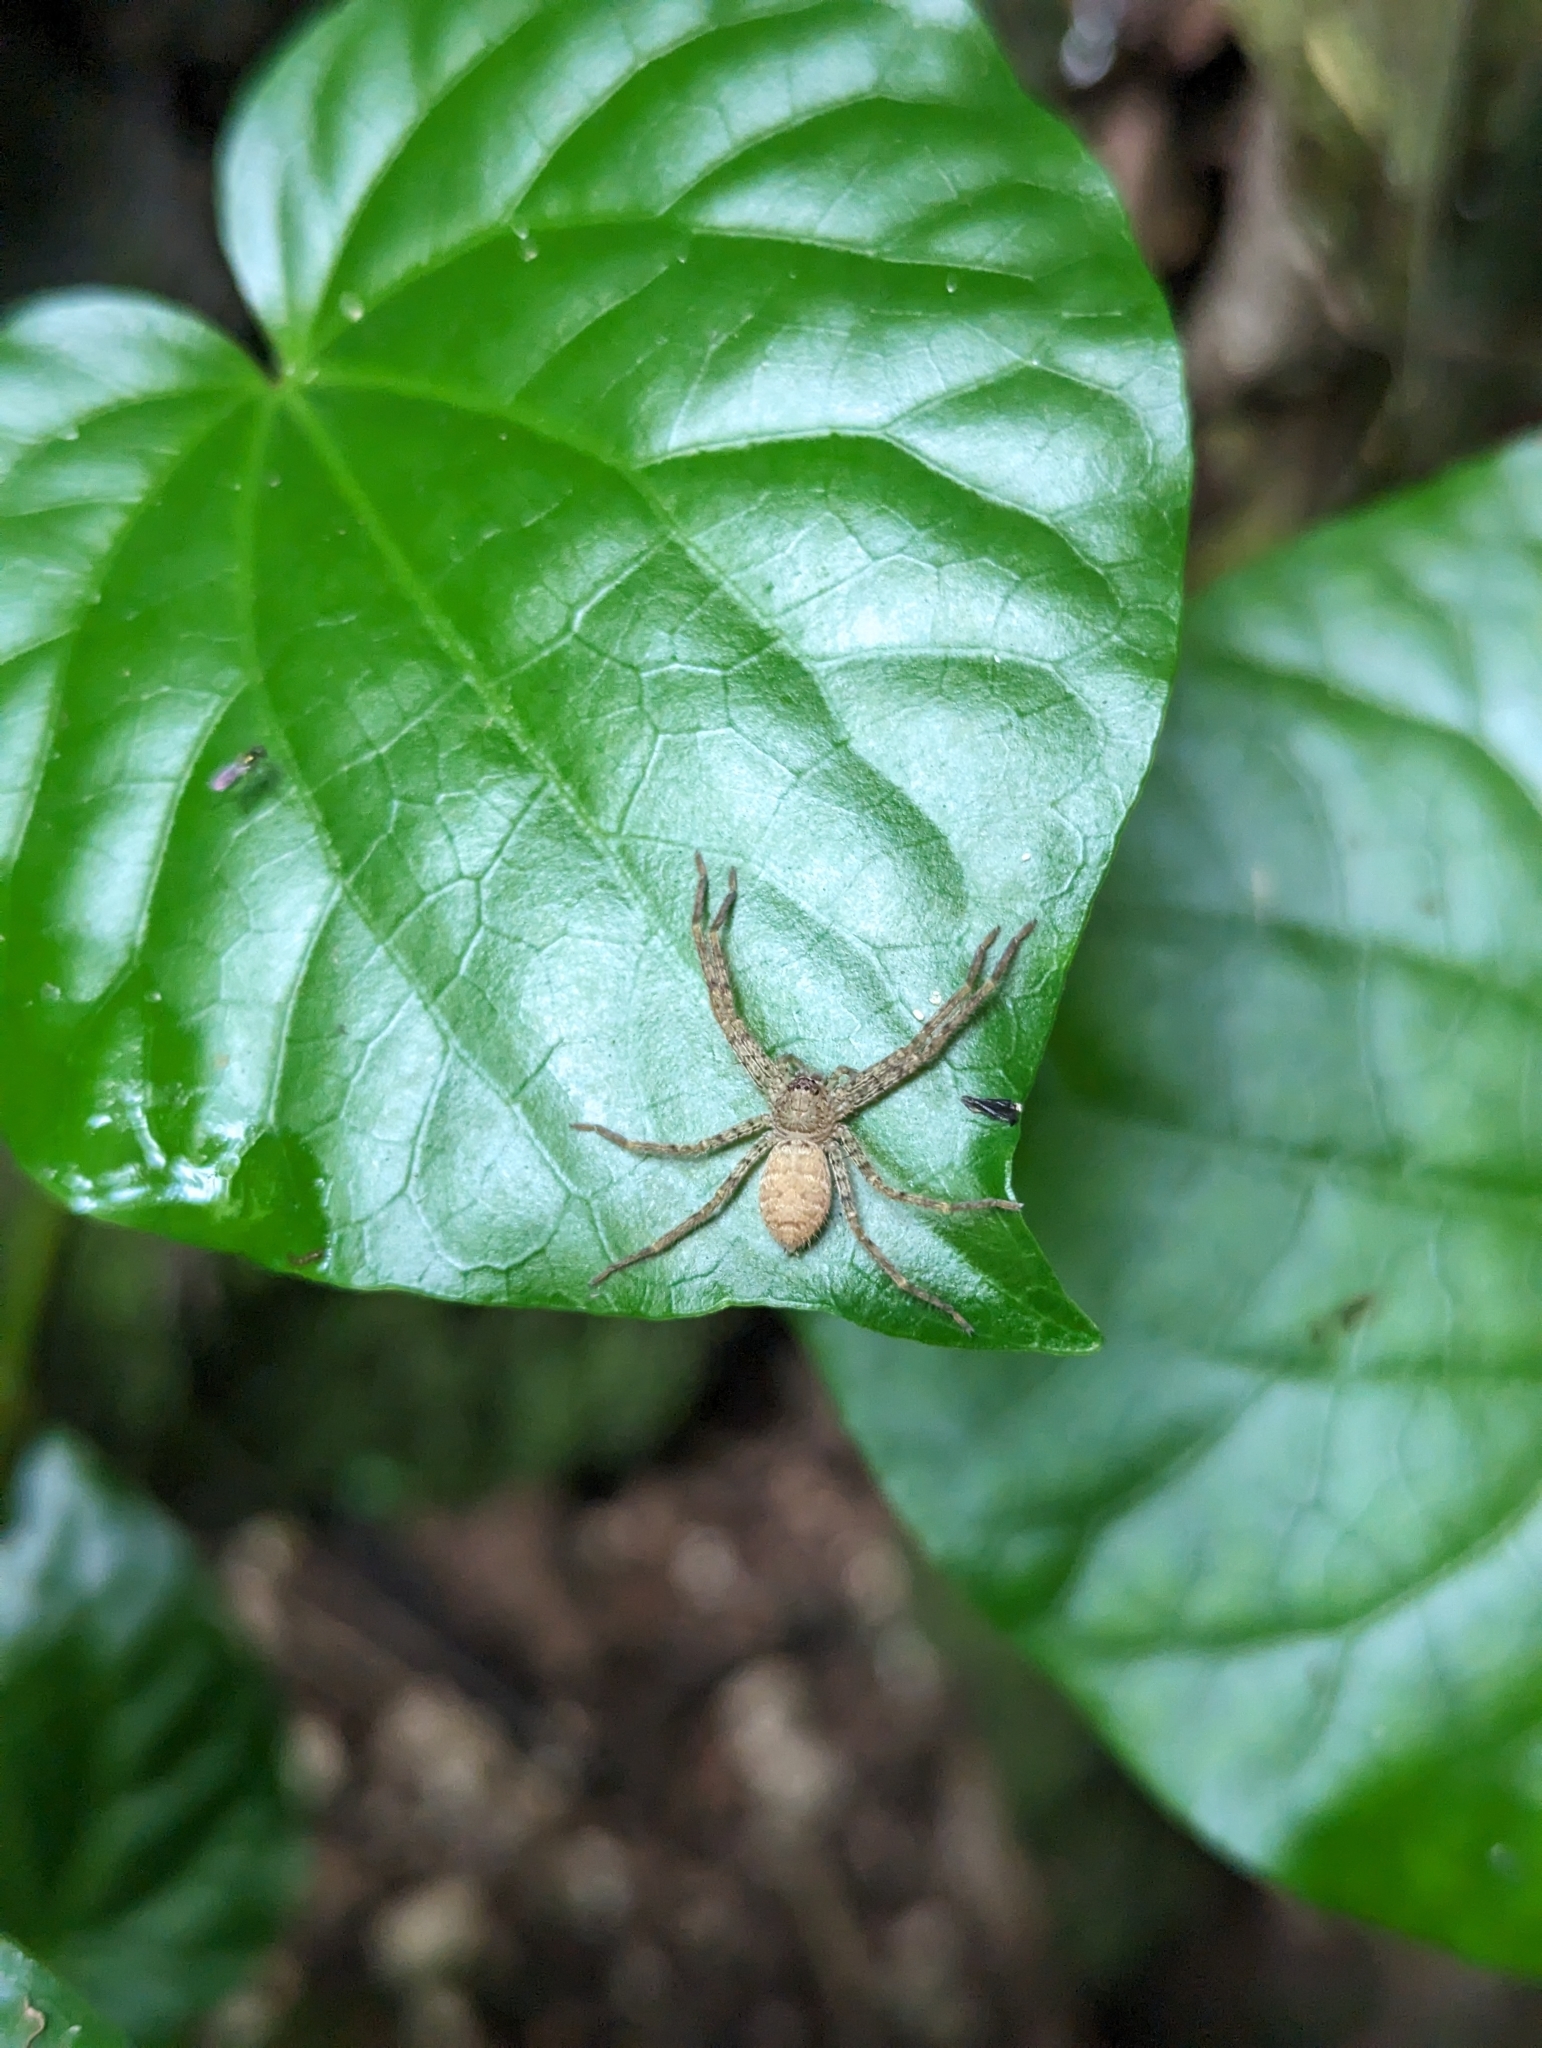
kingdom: Animalia
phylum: Arthropoda
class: Arachnida
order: Araneae
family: Sparassidae
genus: Heteropoda
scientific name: Heteropoda venatoria
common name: Huntsman spider
